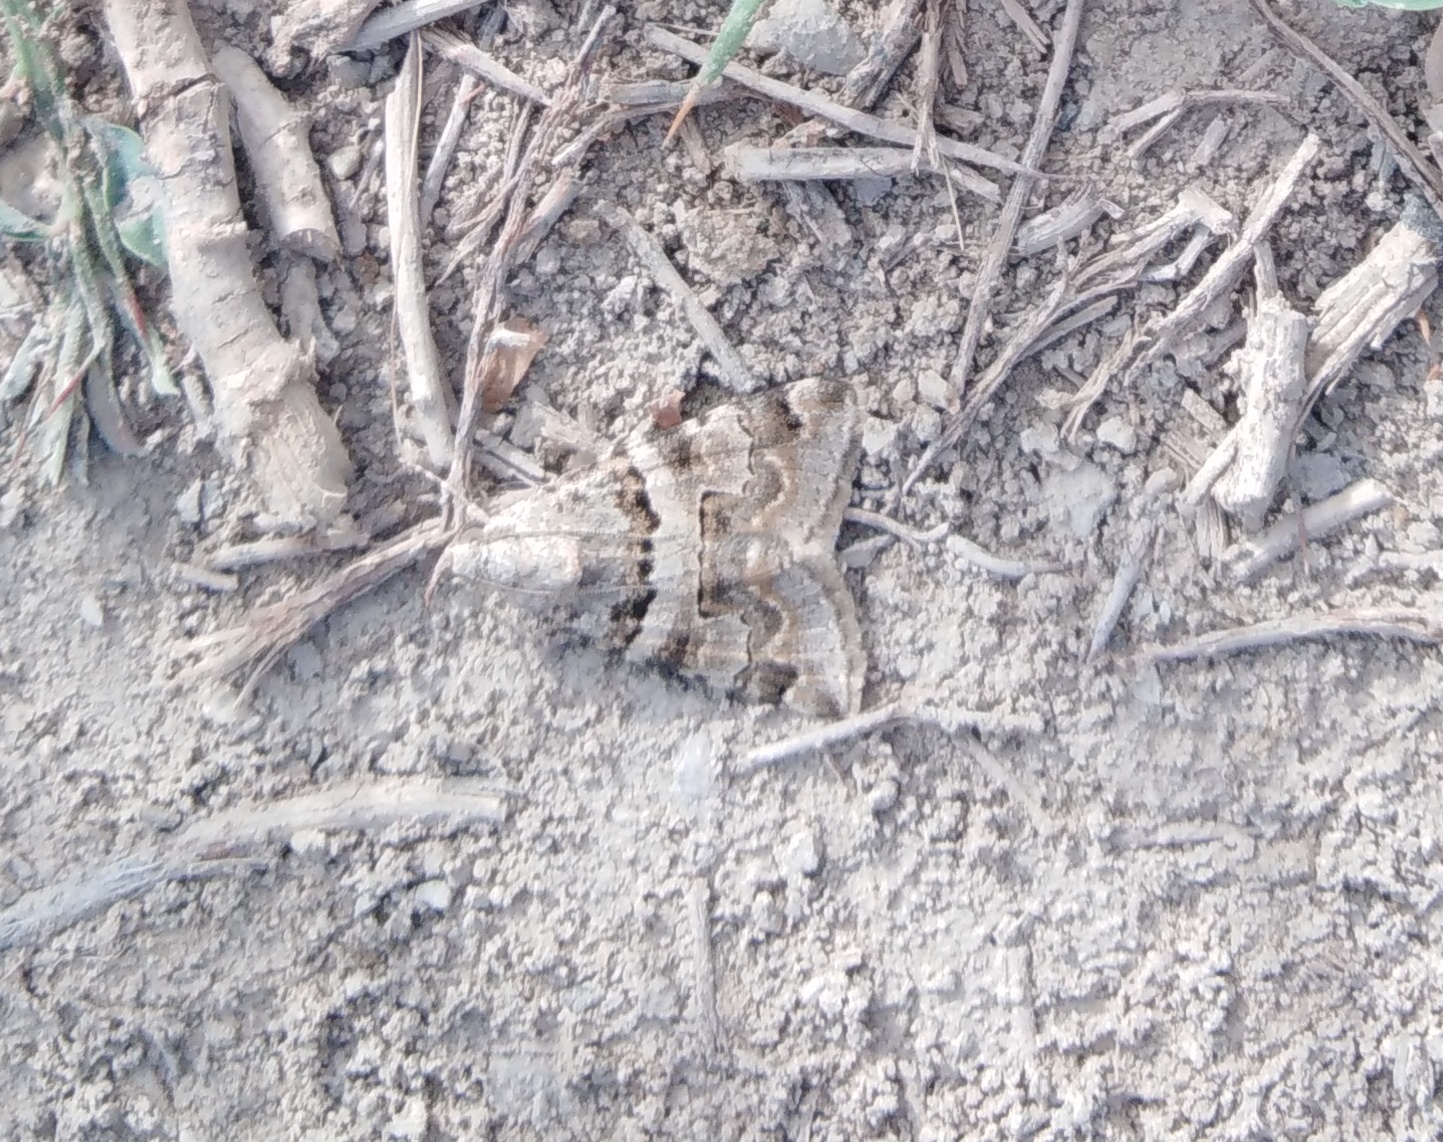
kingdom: Animalia
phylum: Arthropoda
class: Insecta
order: Lepidoptera
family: Erebidae
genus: Drasteria
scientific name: Drasteria flexuosa
